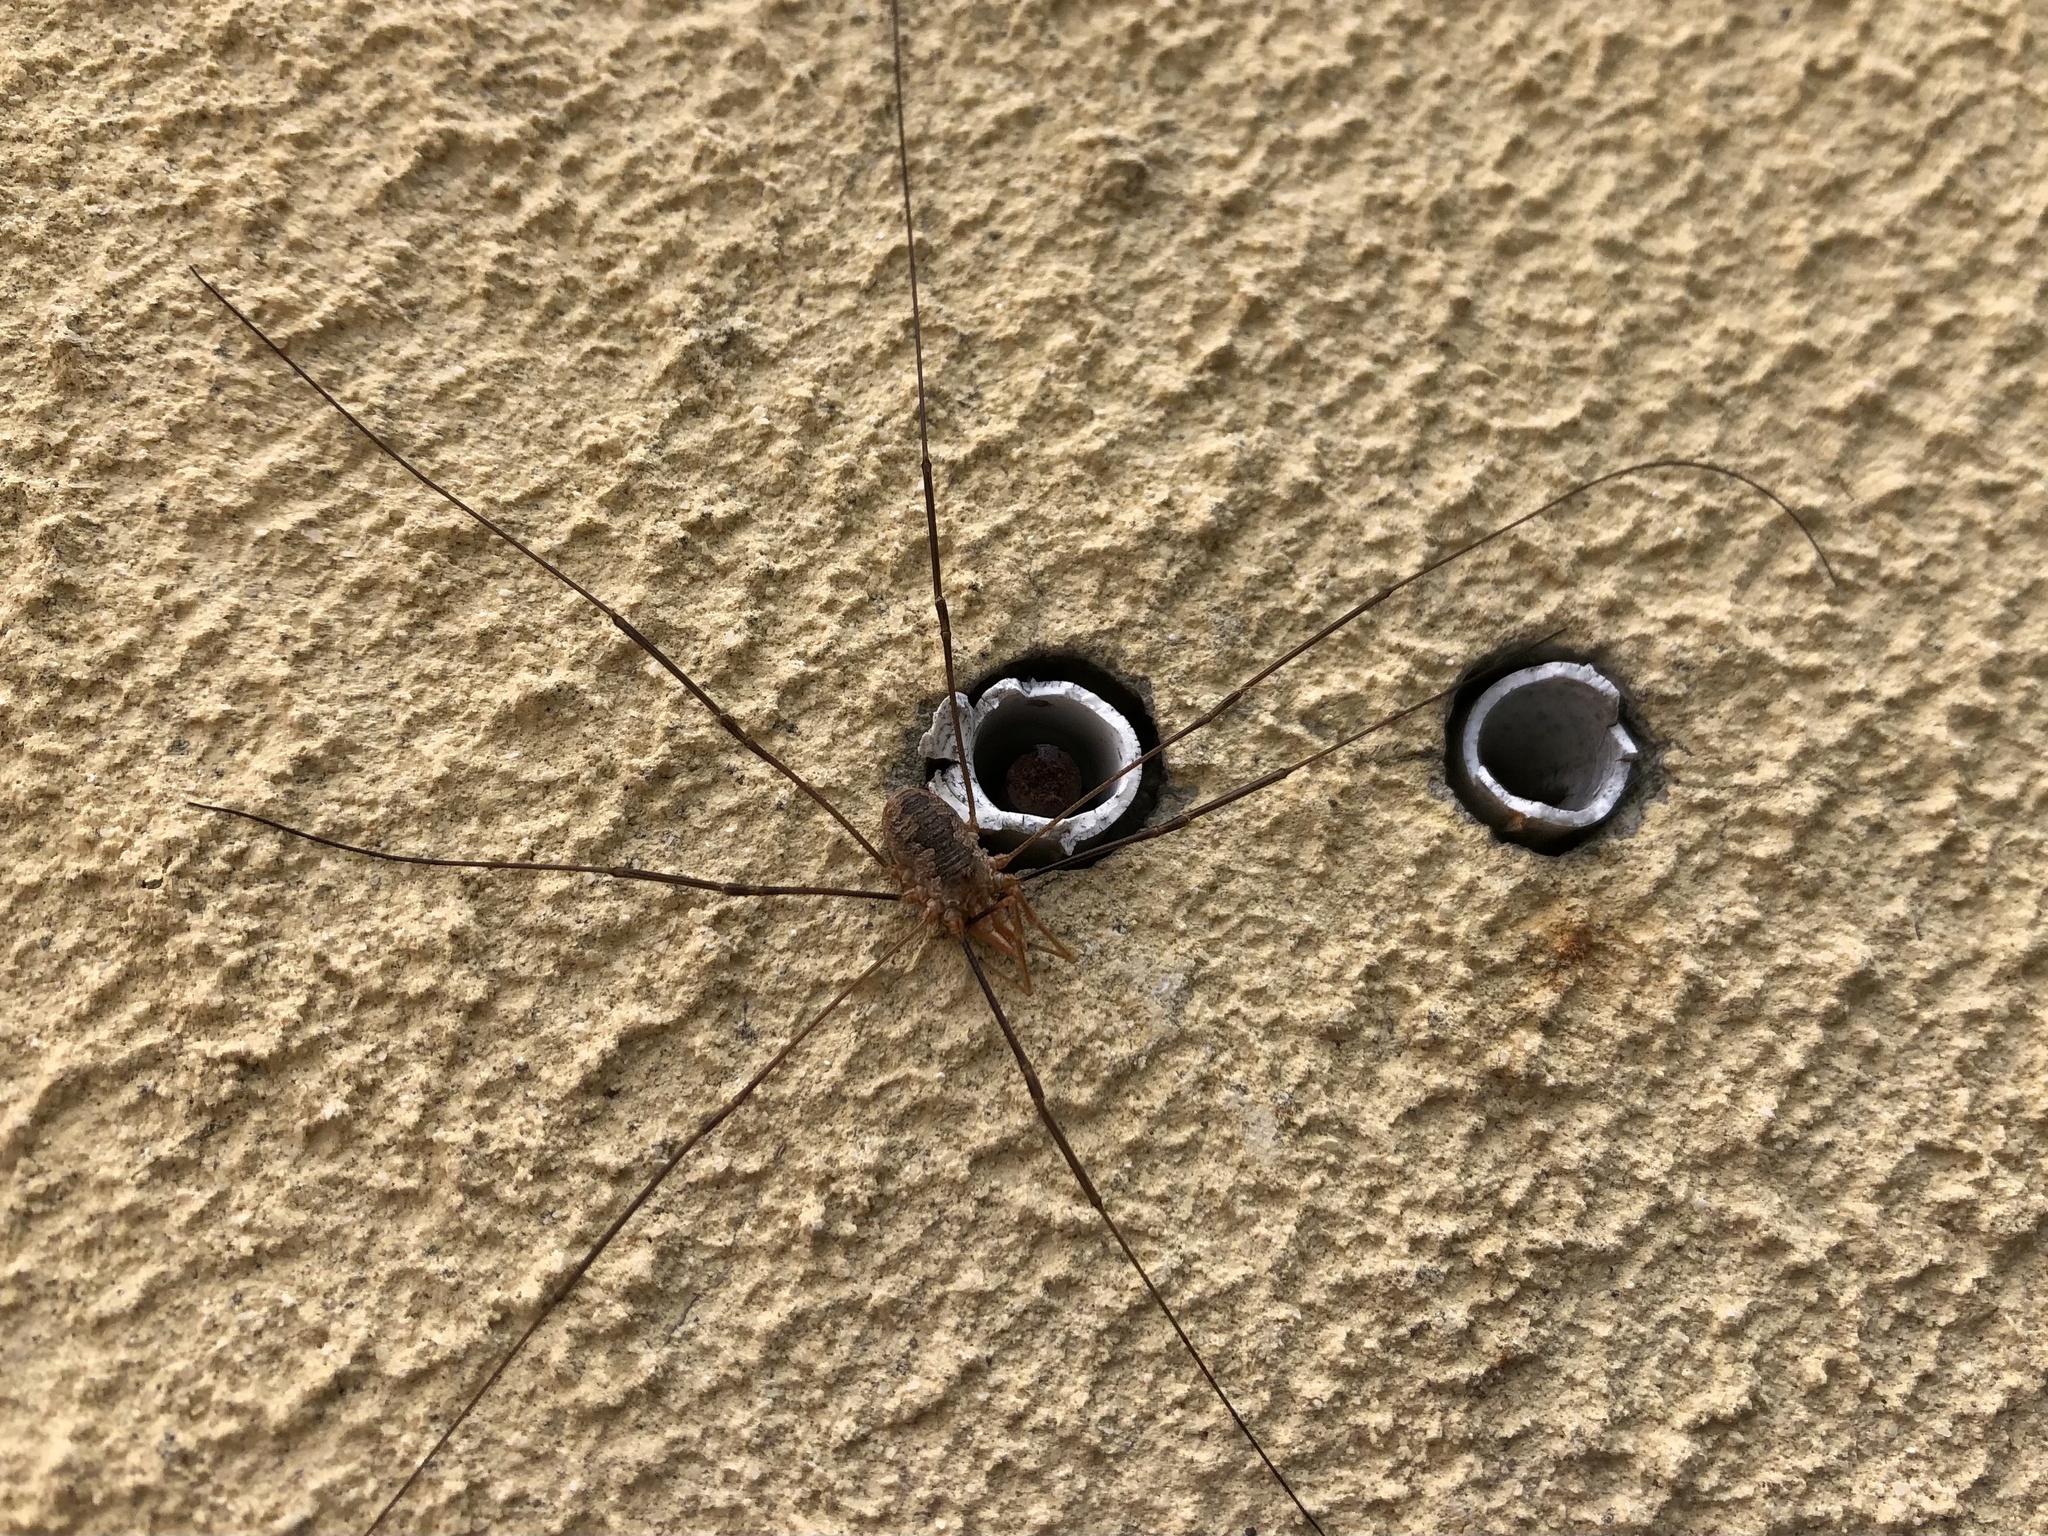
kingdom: Animalia
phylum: Arthropoda
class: Arachnida
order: Opiliones
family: Phalangiidae
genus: Phalangium
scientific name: Phalangium opilio
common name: Daddy longleg
